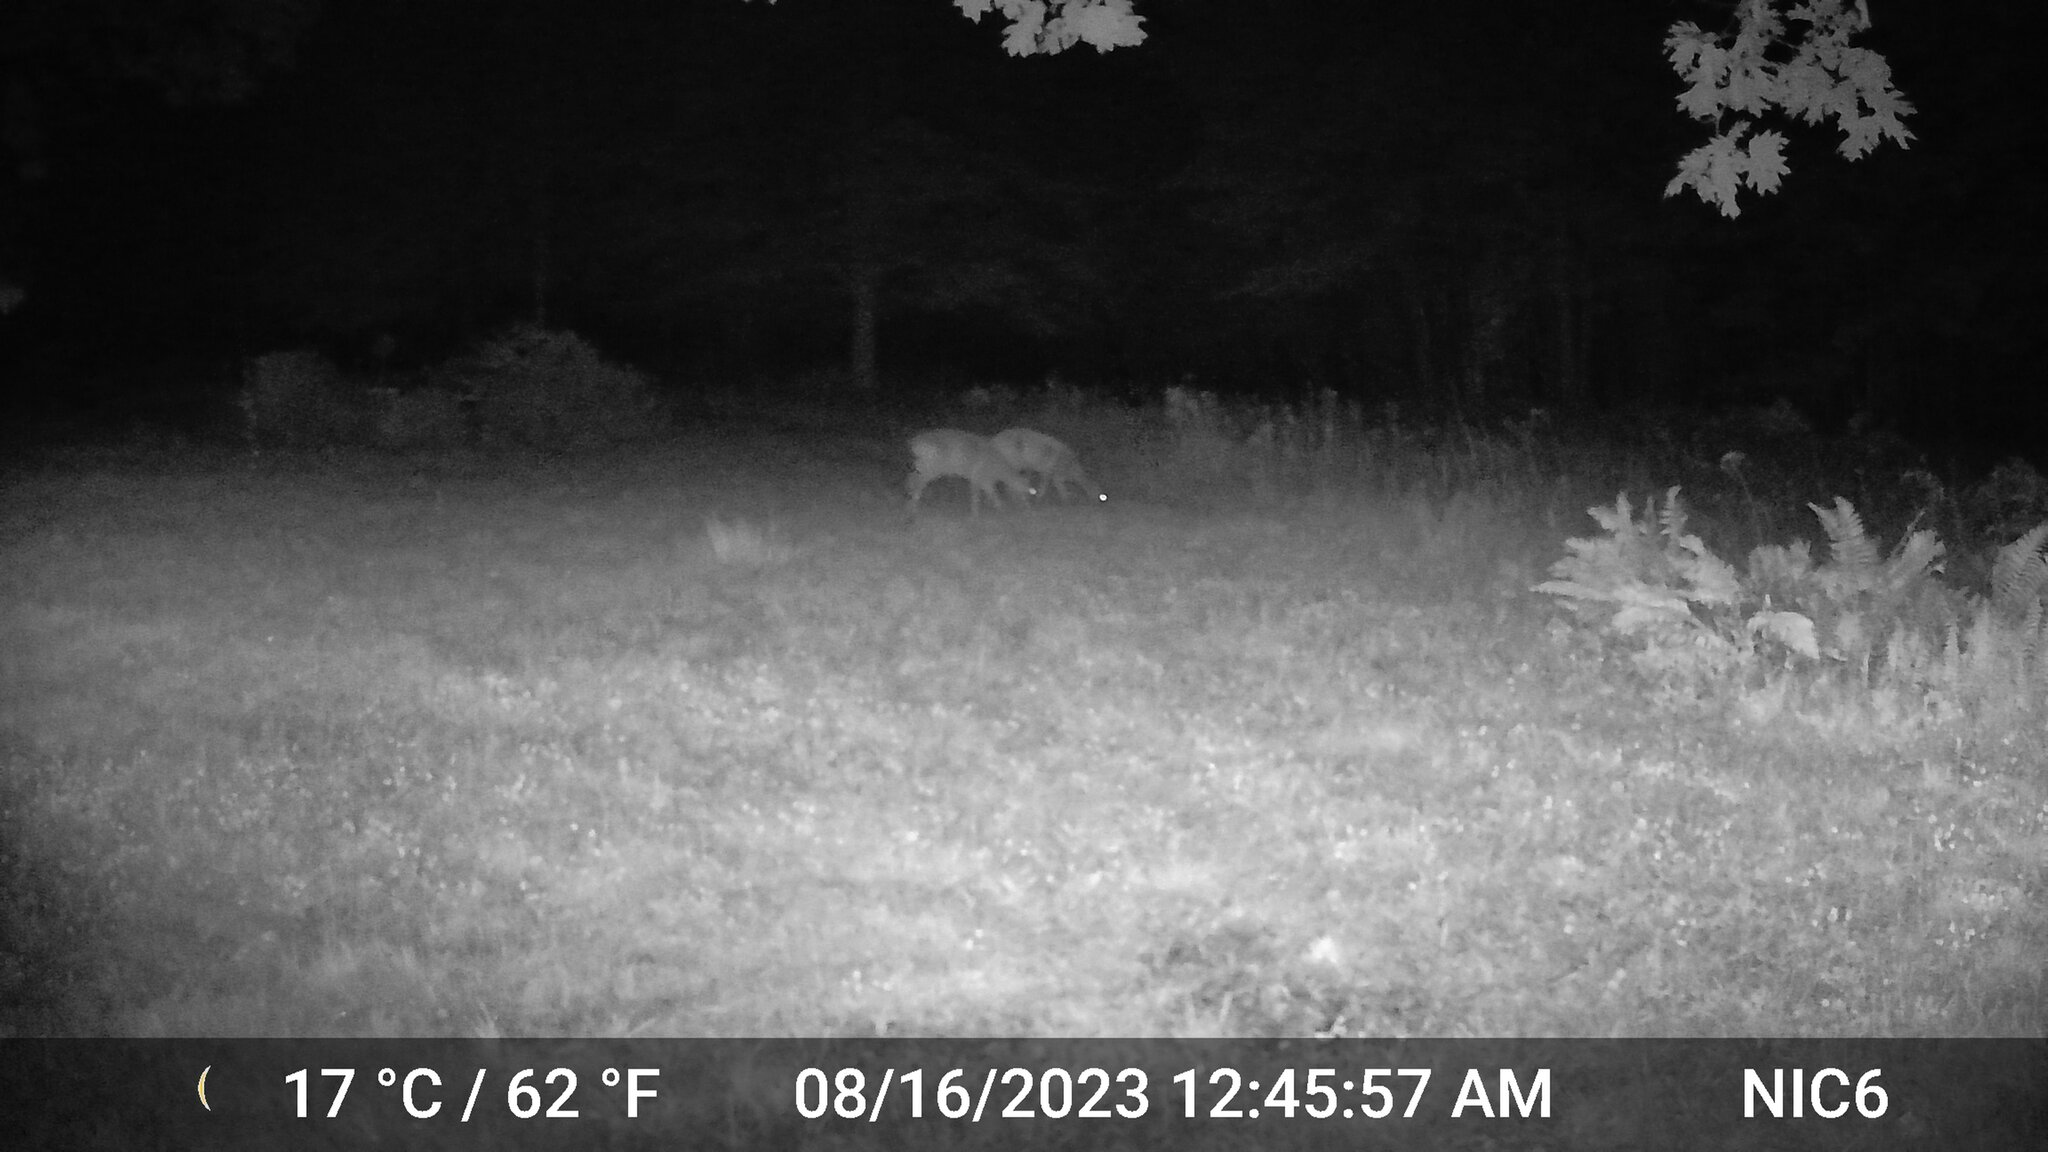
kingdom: Animalia
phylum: Chordata
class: Mammalia
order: Artiodactyla
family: Cervidae
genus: Odocoileus
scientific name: Odocoileus virginianus
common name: White-tailed deer
